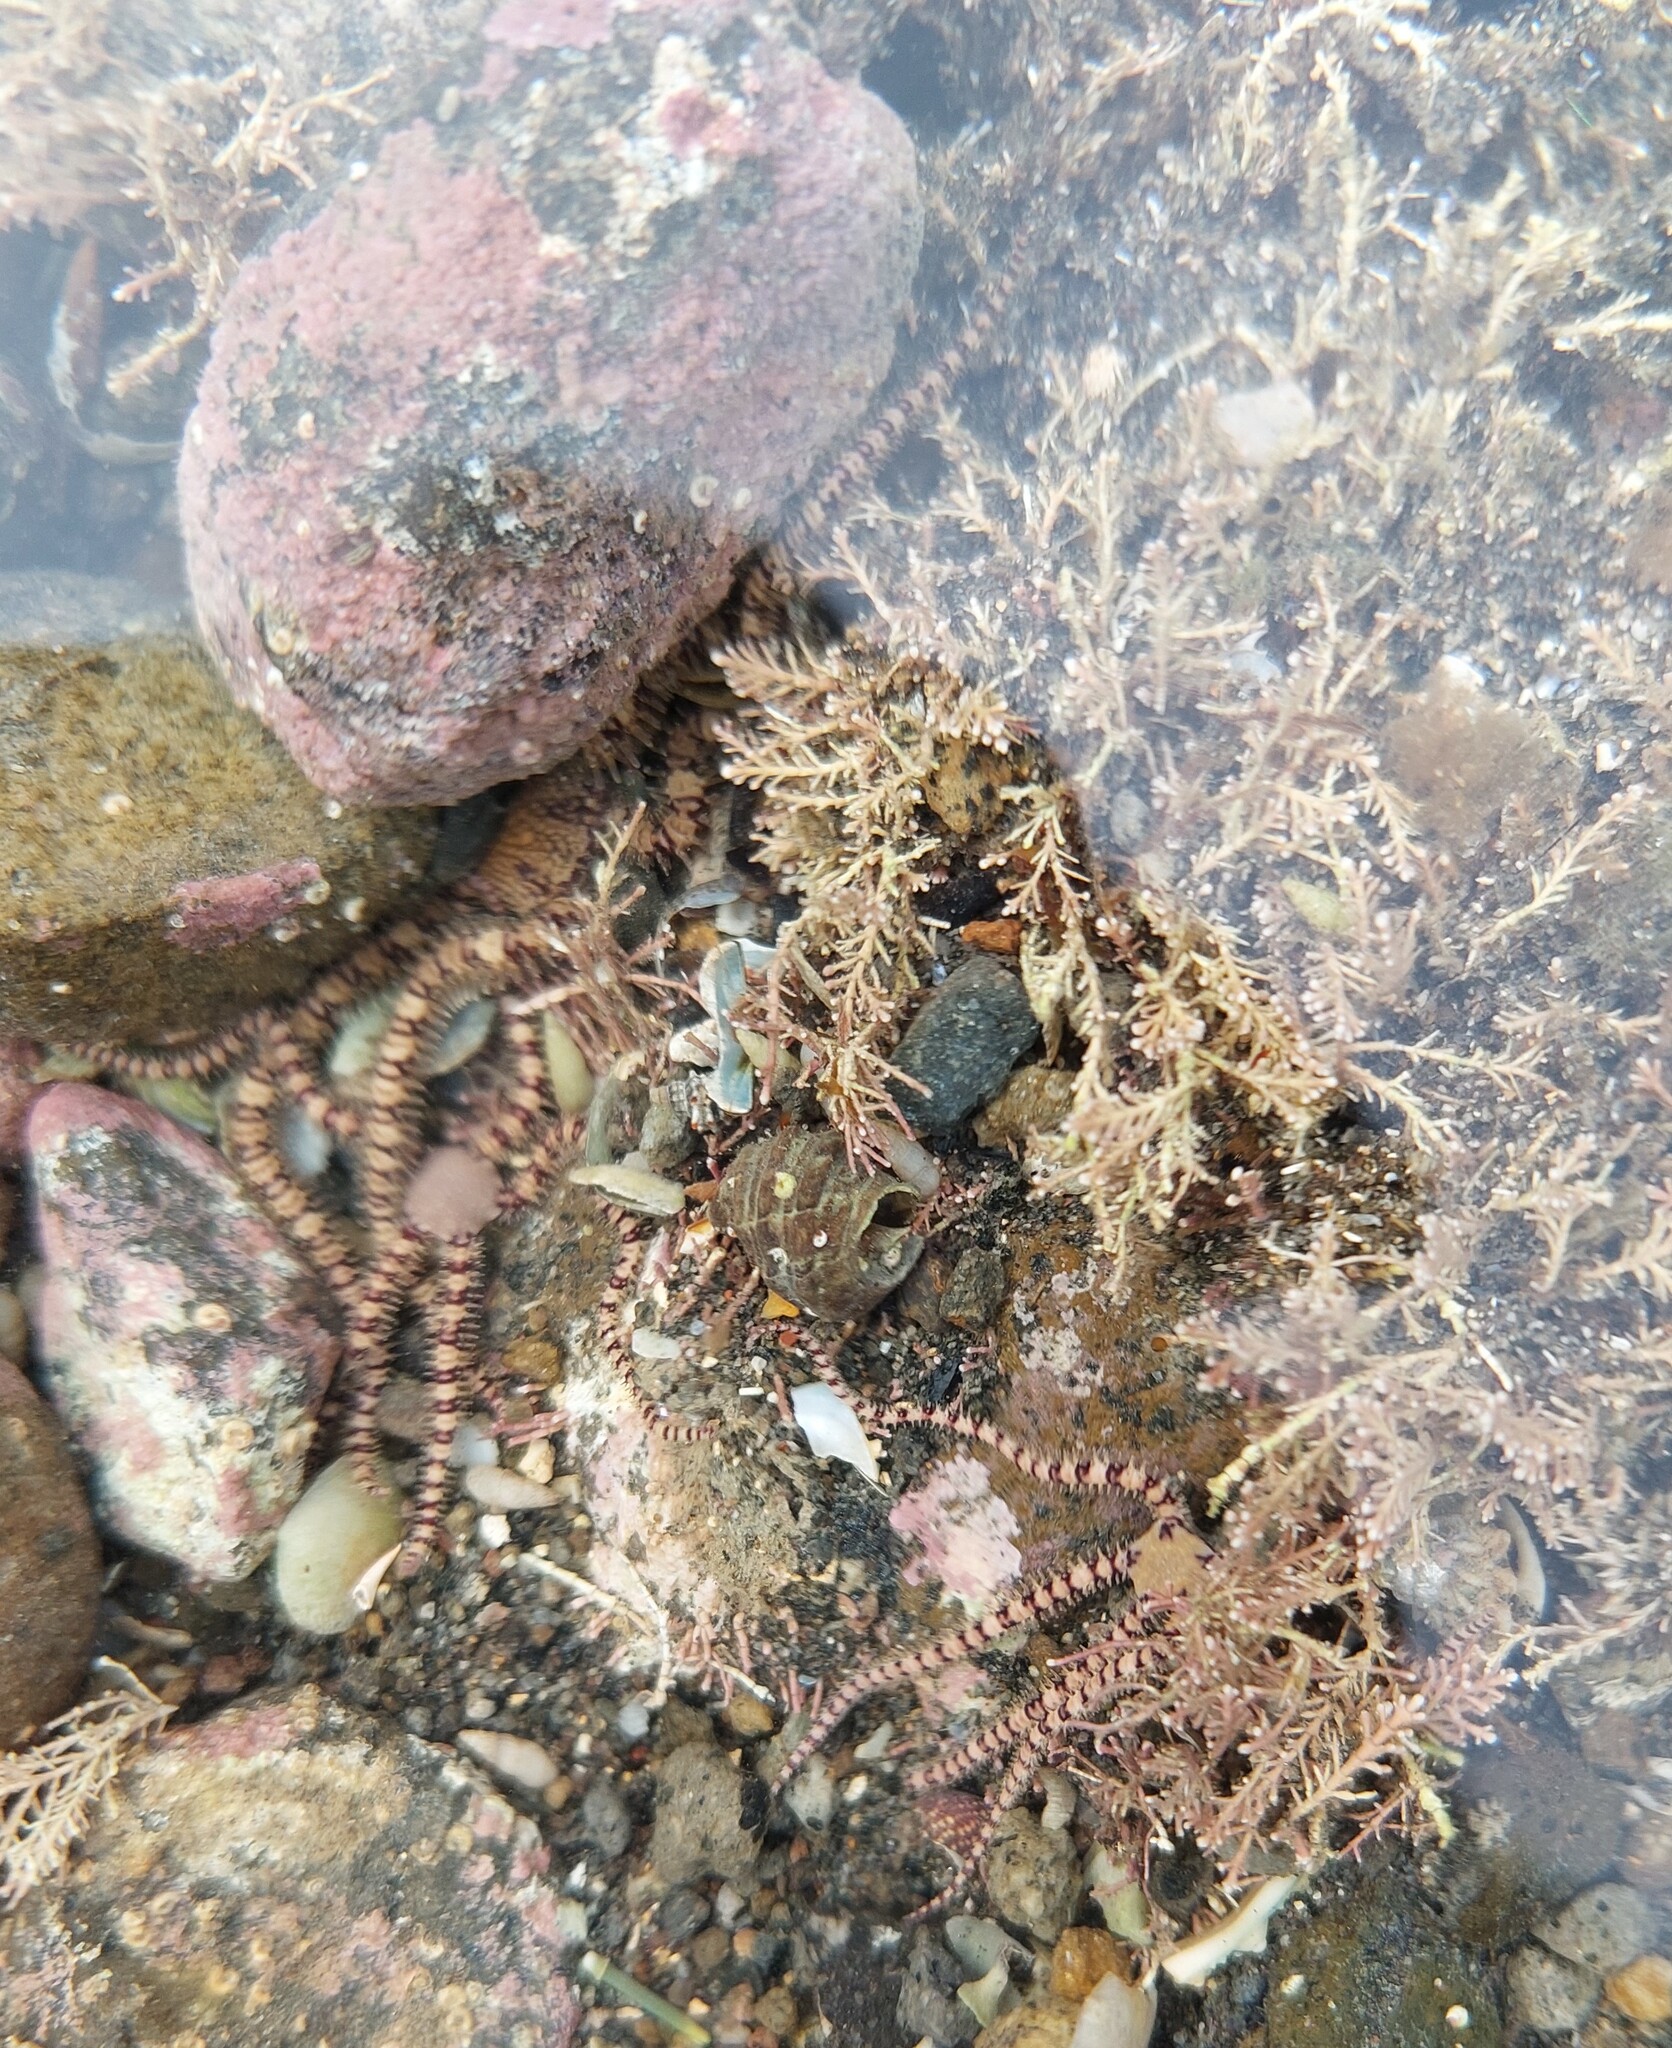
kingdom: Animalia
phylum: Echinodermata
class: Ophiuroidea
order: Amphilepidida
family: Ophionereididae
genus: Ophionereis
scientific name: Ophionereis fasciata
